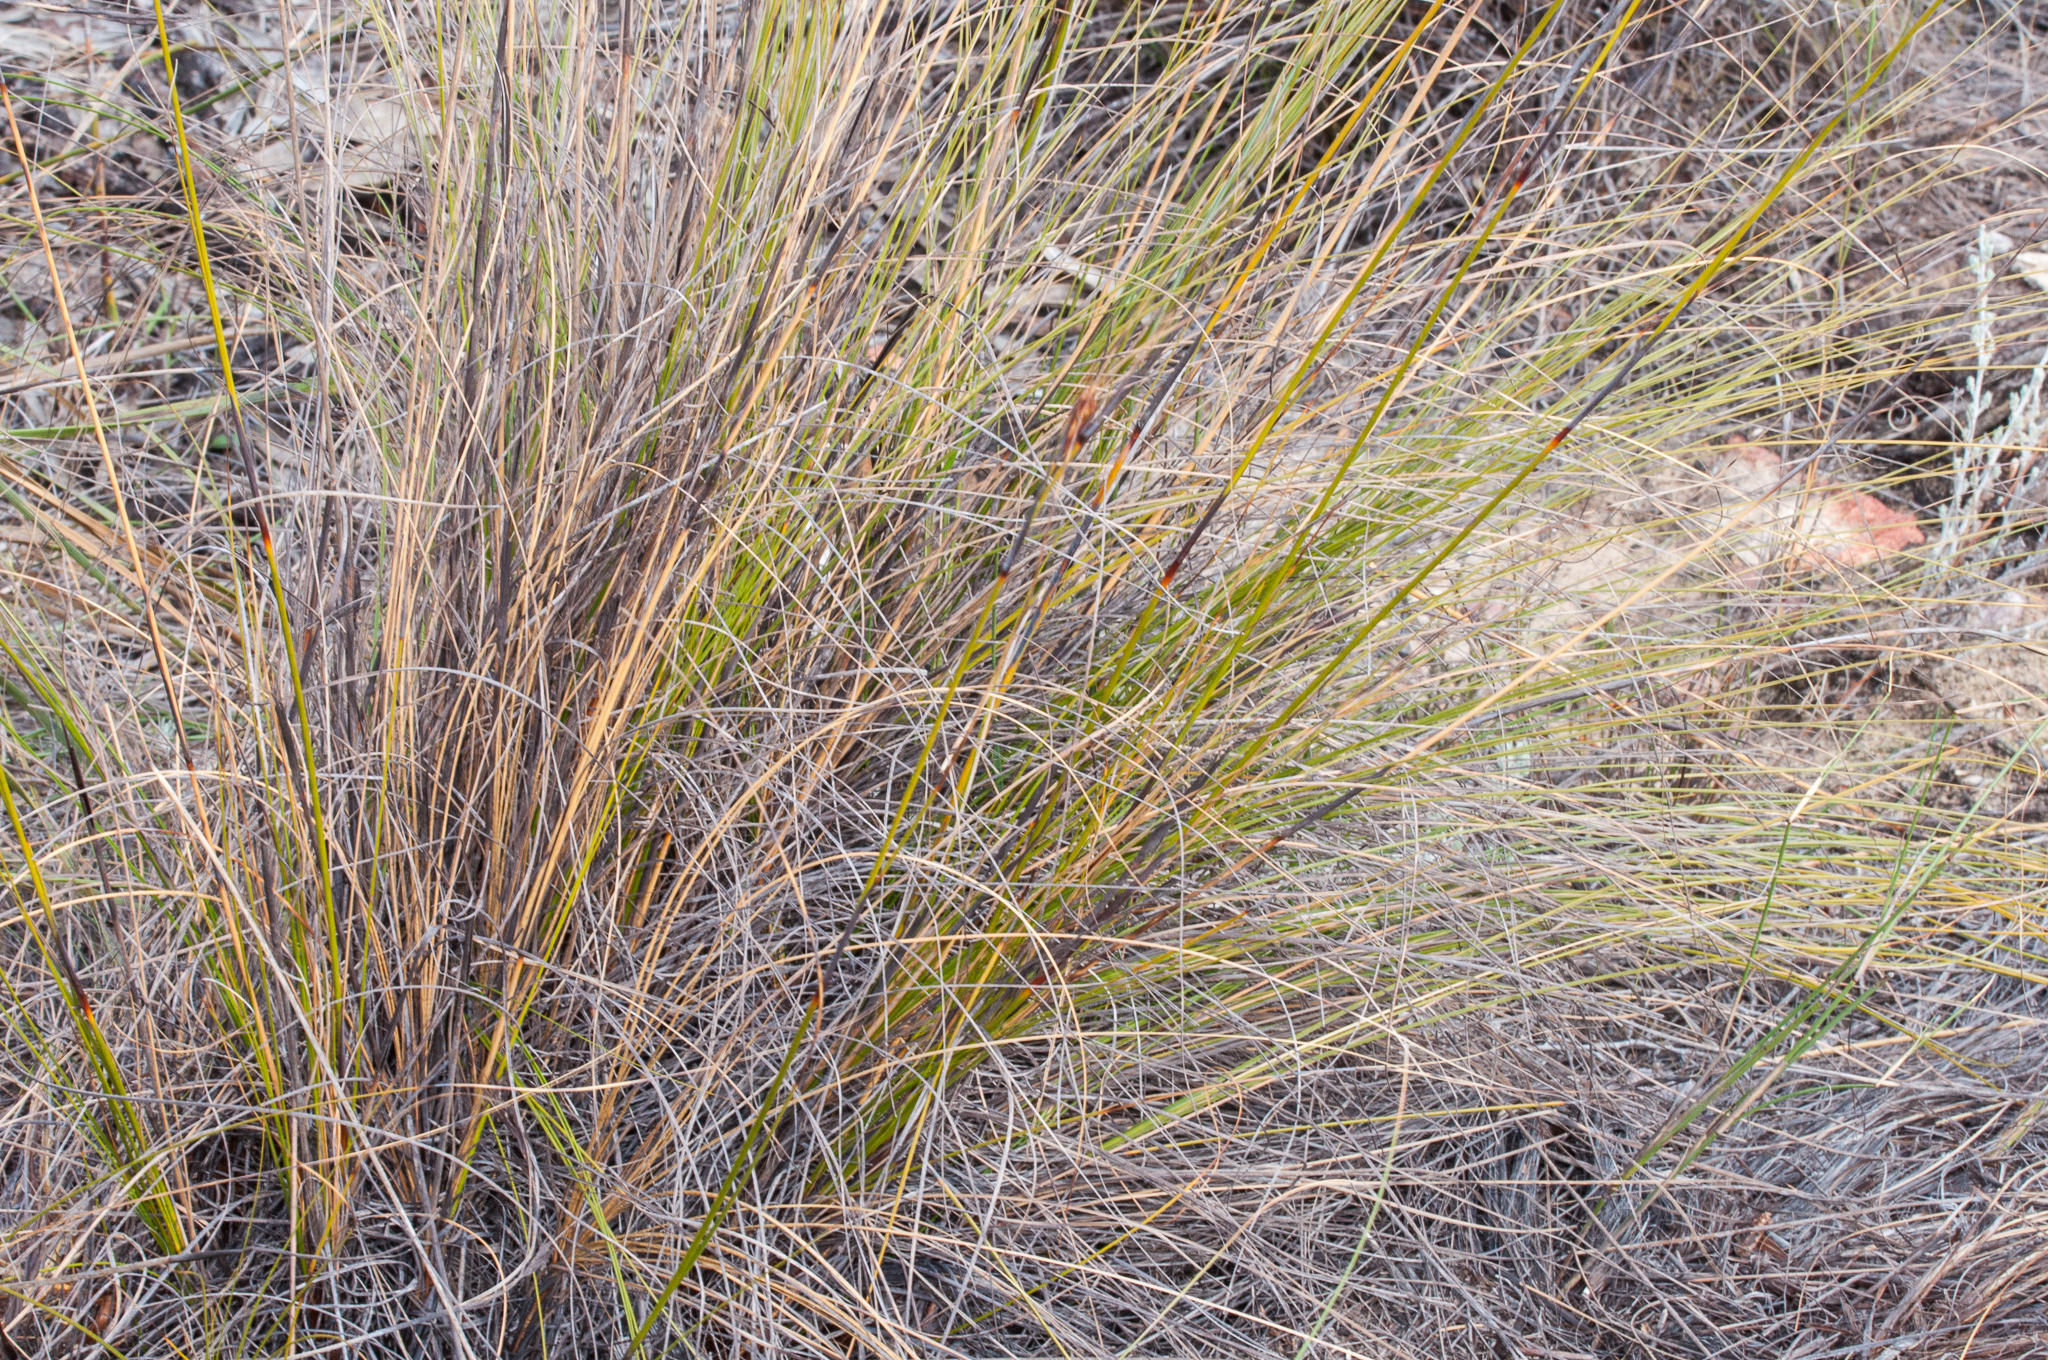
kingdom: Plantae
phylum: Tracheophyta
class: Liliopsida
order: Poales
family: Cyperaceae
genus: Tetraria
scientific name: Tetraria ustulata
